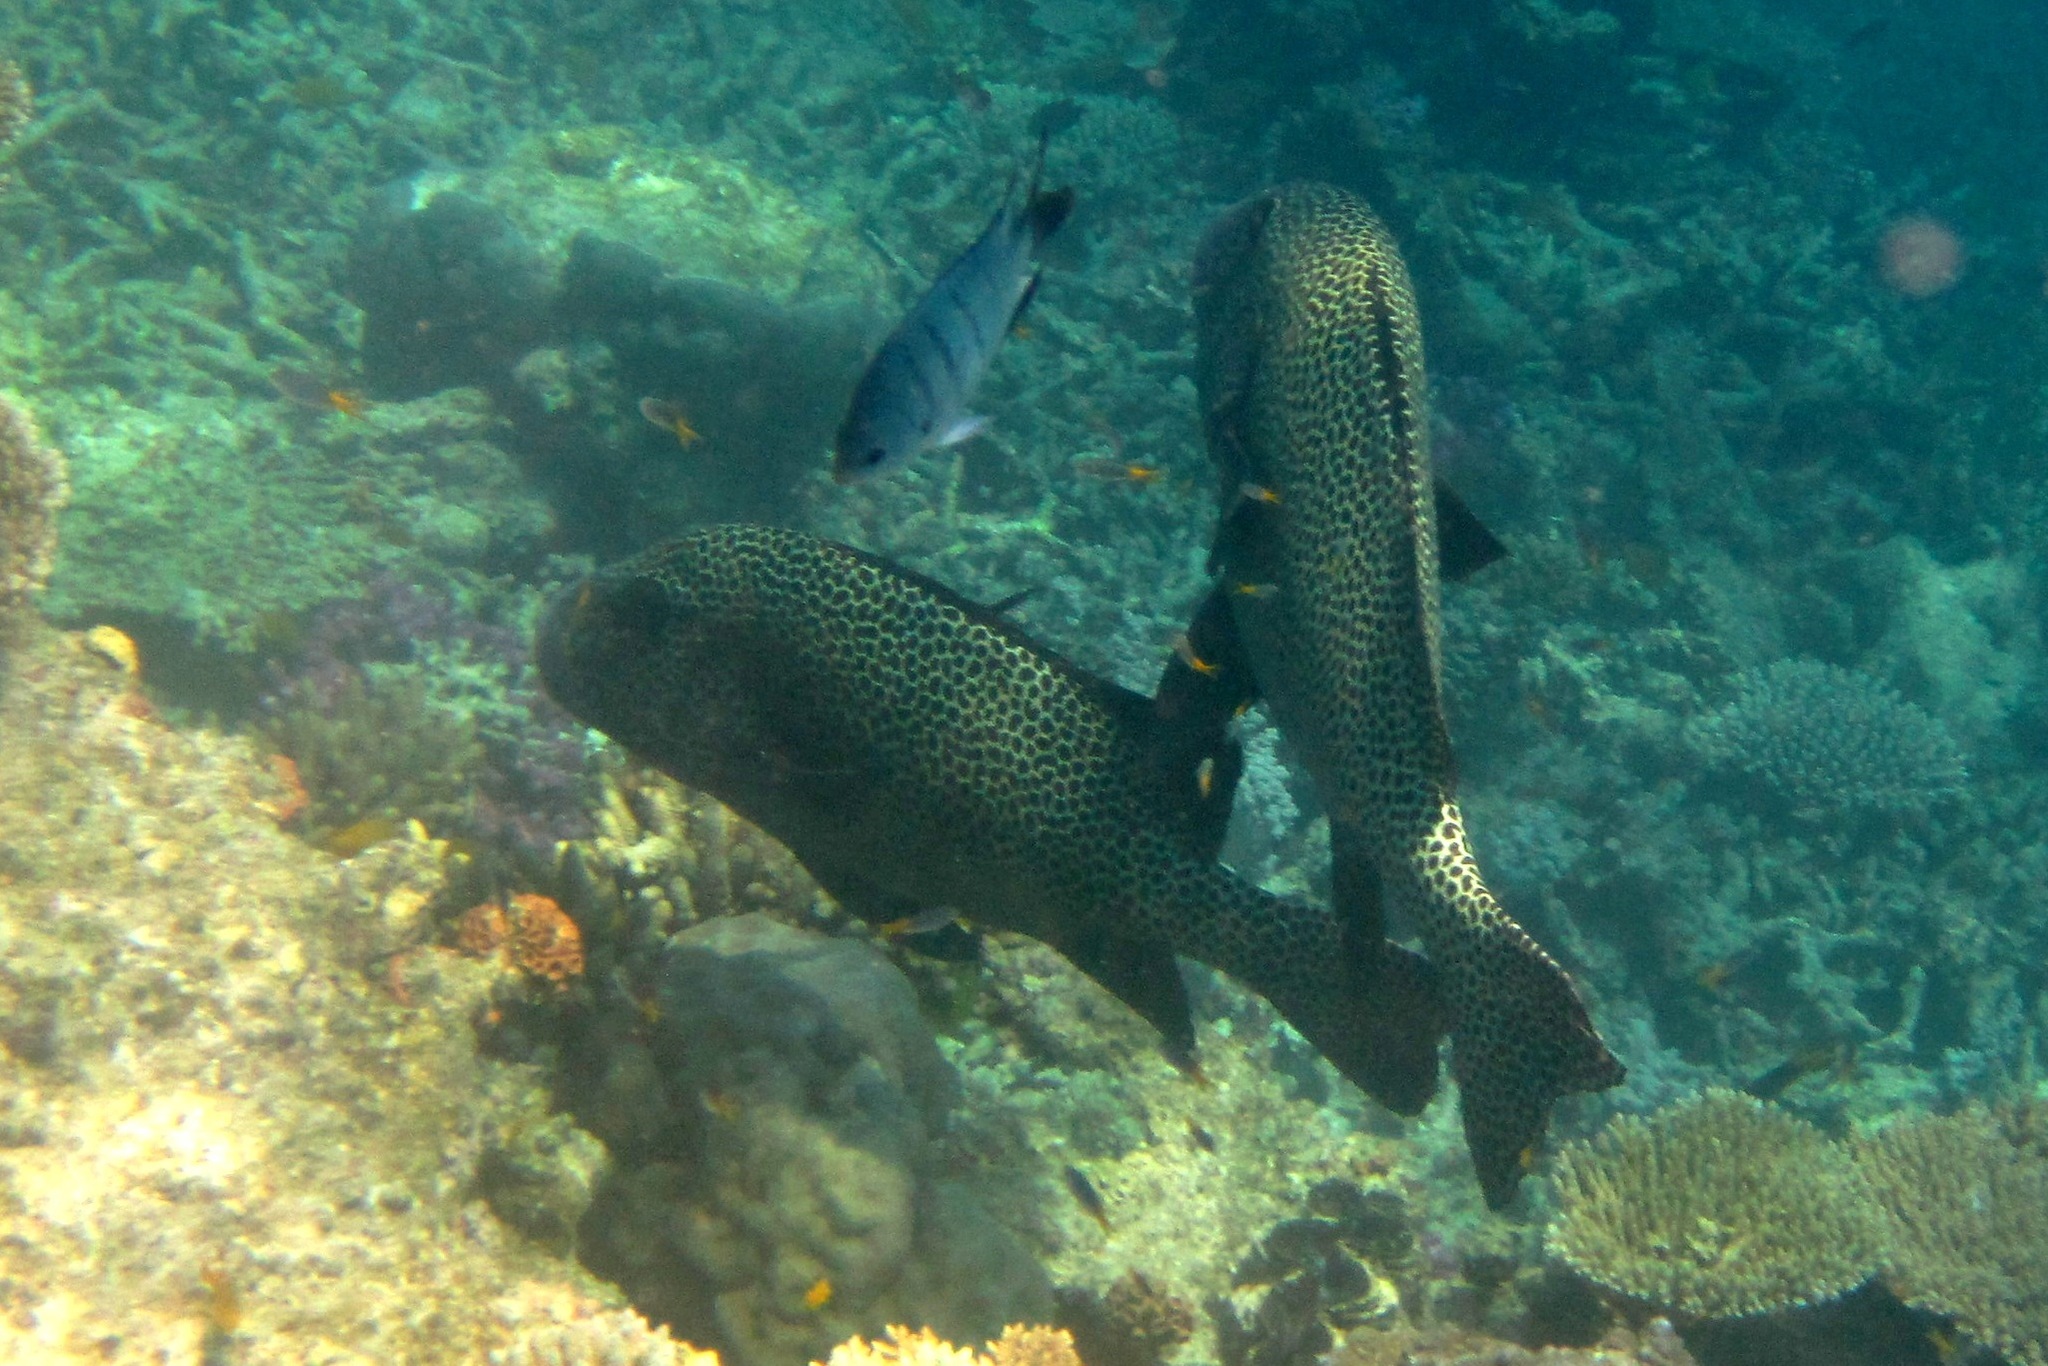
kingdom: Animalia
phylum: Chordata
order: Perciformes
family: Haemulidae
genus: Plectorhinchus
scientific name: Plectorhinchus chaetodonoides
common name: Harlequin sweetlips
